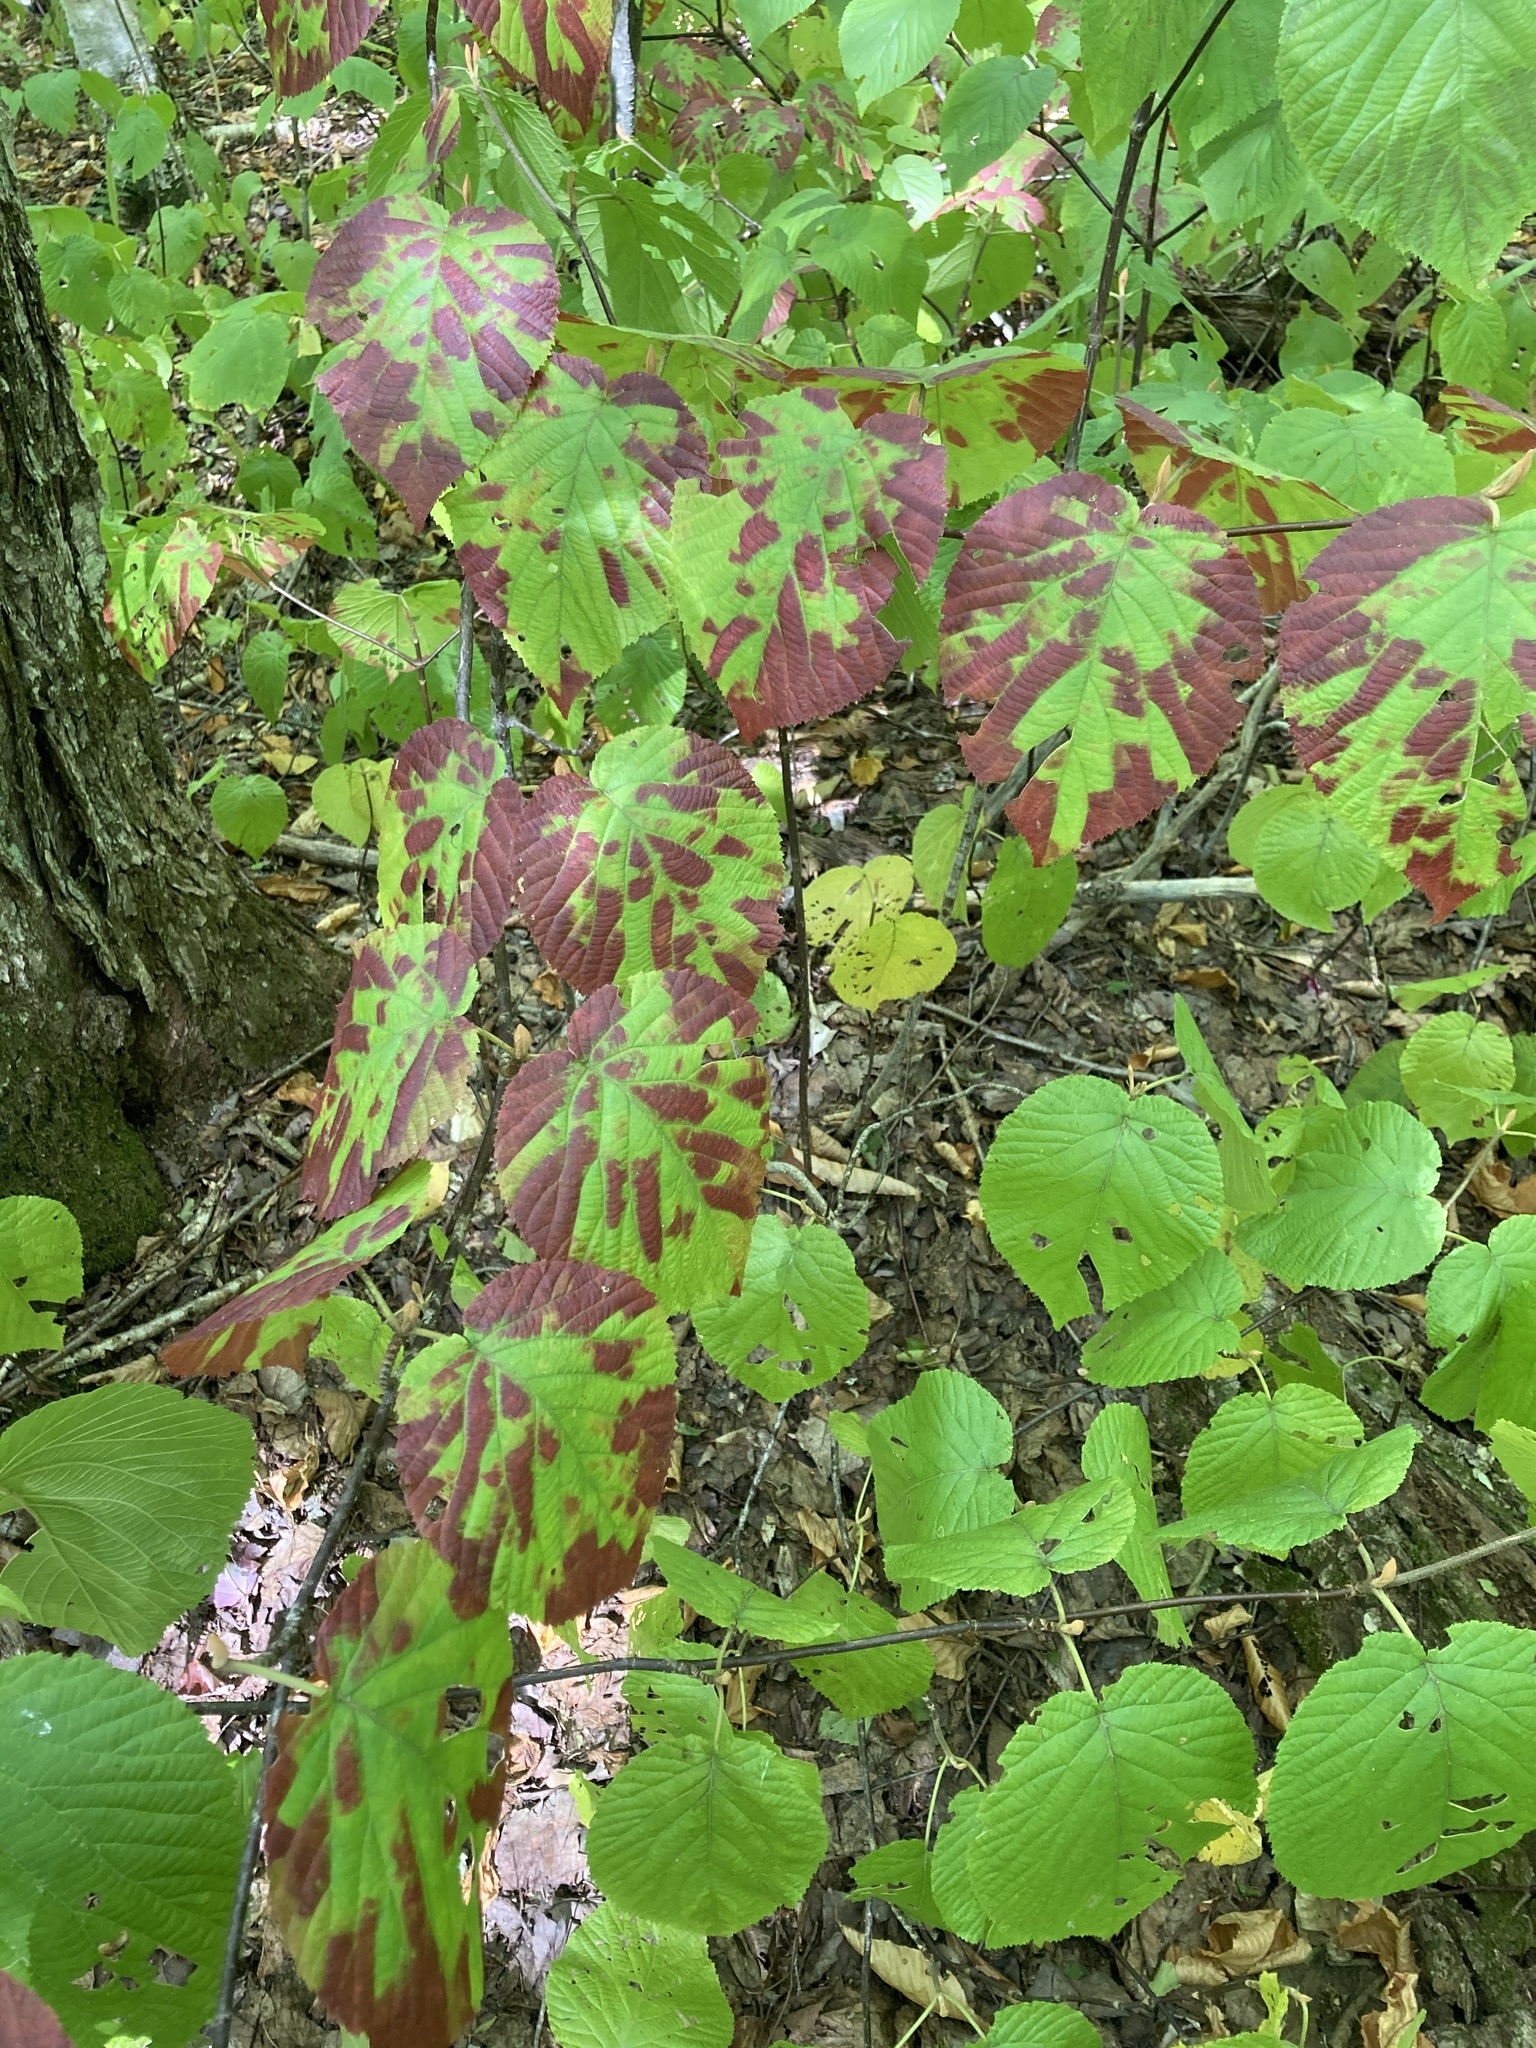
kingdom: Plantae
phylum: Tracheophyta
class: Magnoliopsida
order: Dipsacales
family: Viburnaceae
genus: Viburnum
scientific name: Viburnum lantanoides
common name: Hobblebush
